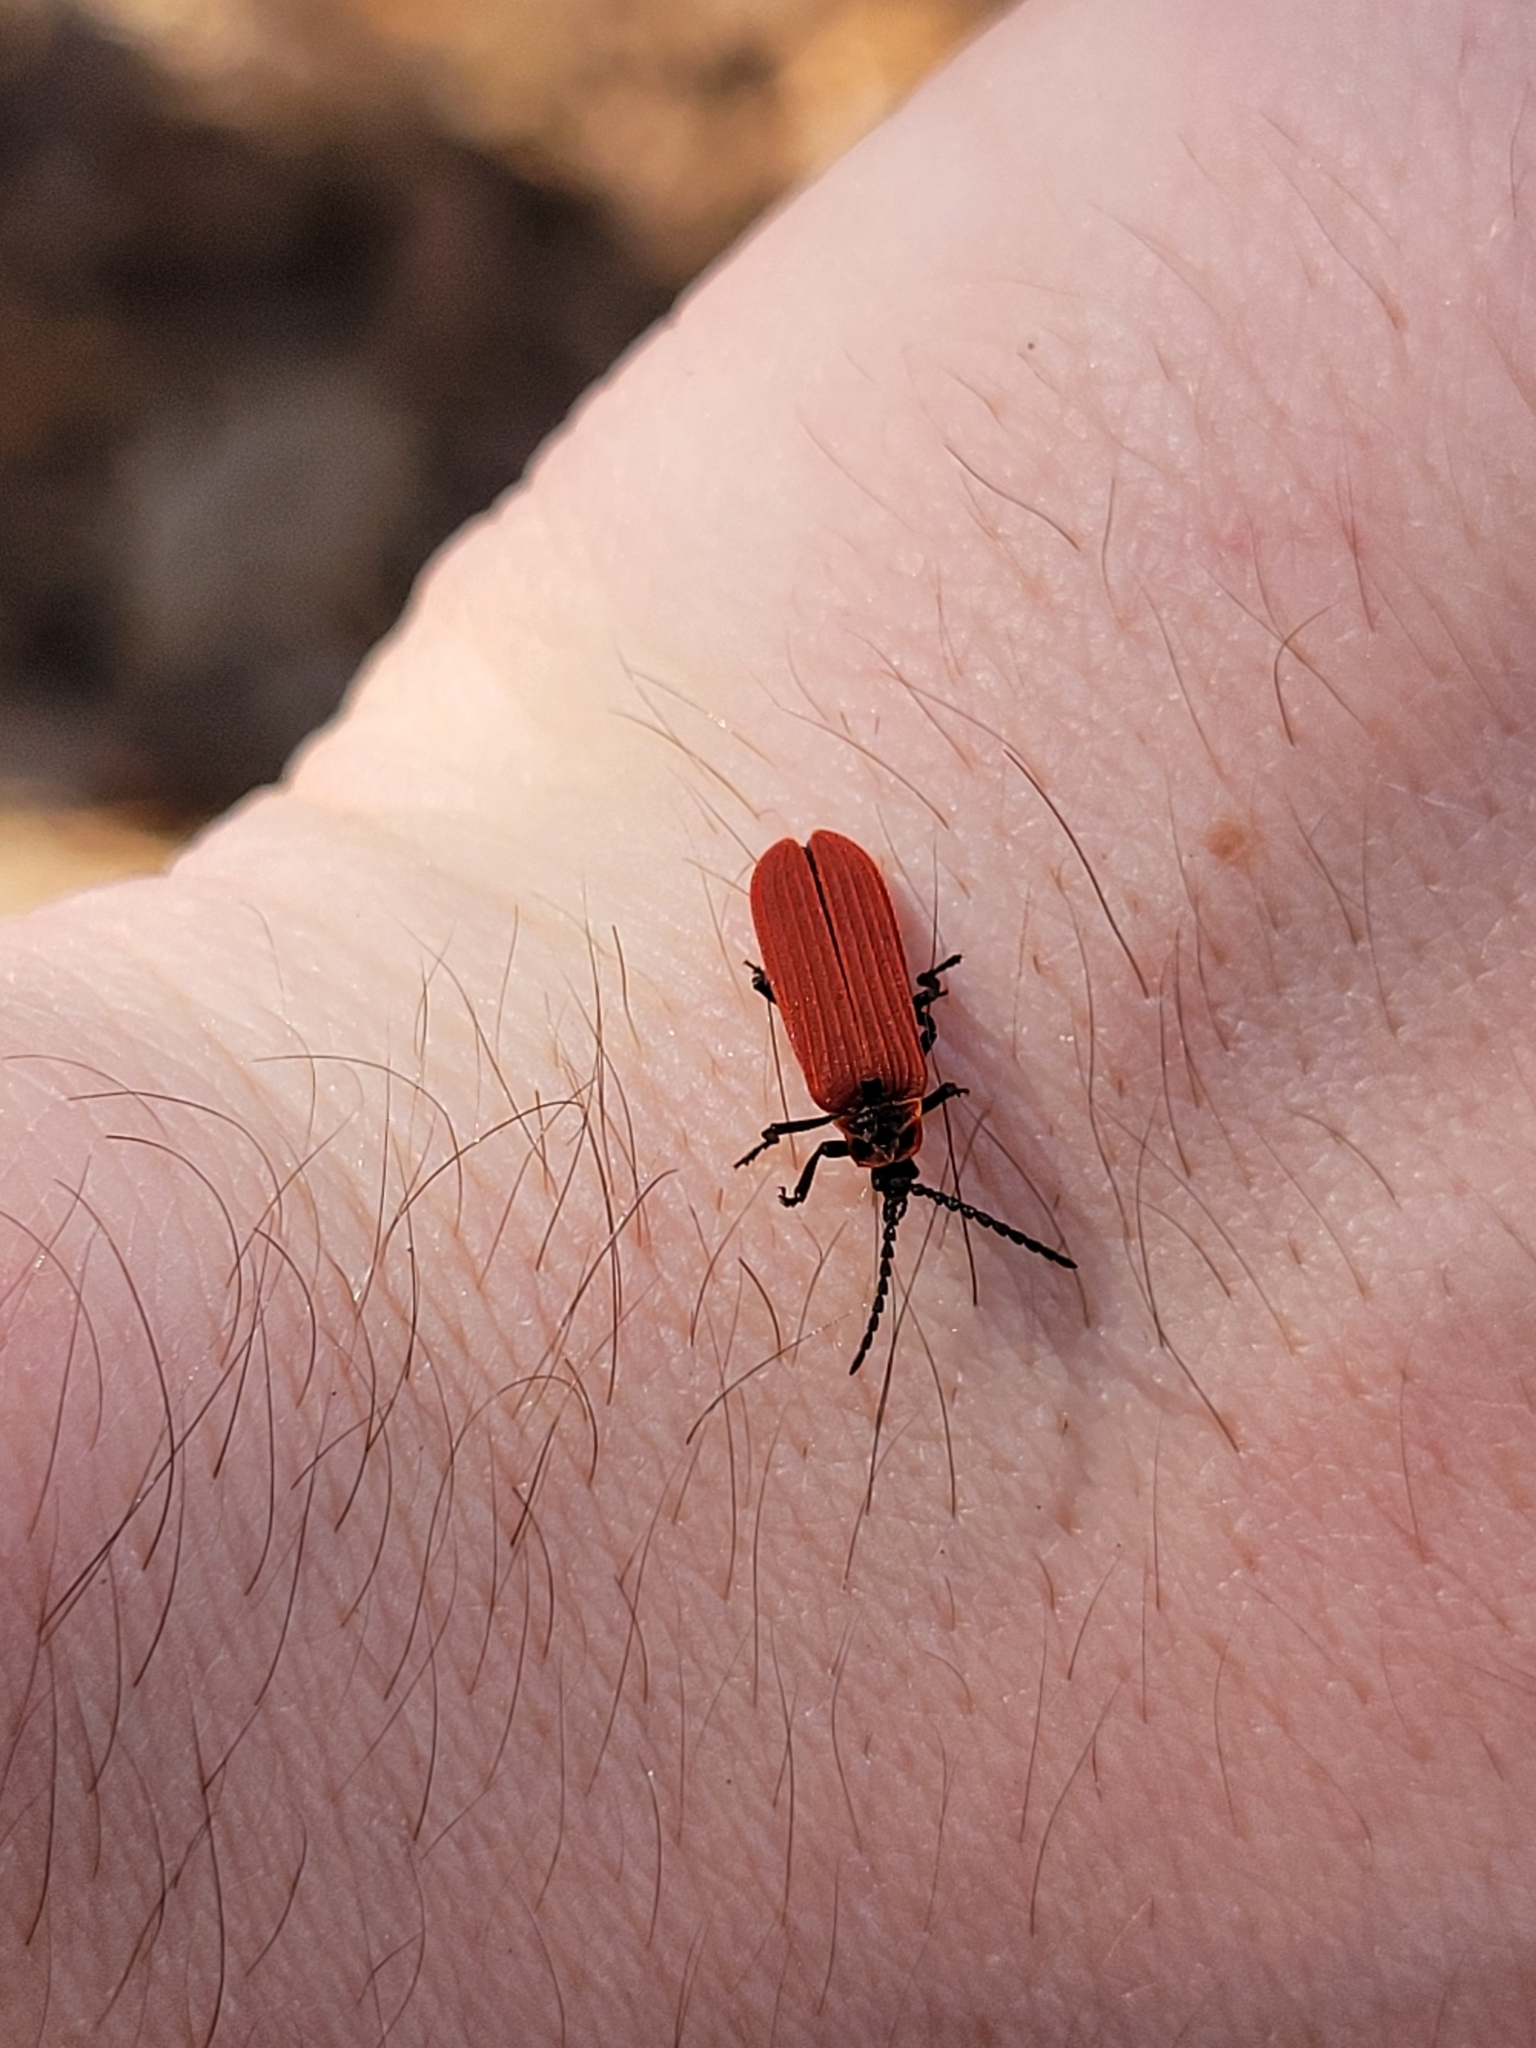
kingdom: Animalia
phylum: Arthropoda
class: Insecta
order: Coleoptera
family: Lycidae
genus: Dictyoptera
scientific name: Dictyoptera aurora
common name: Golden net-winged beetle
